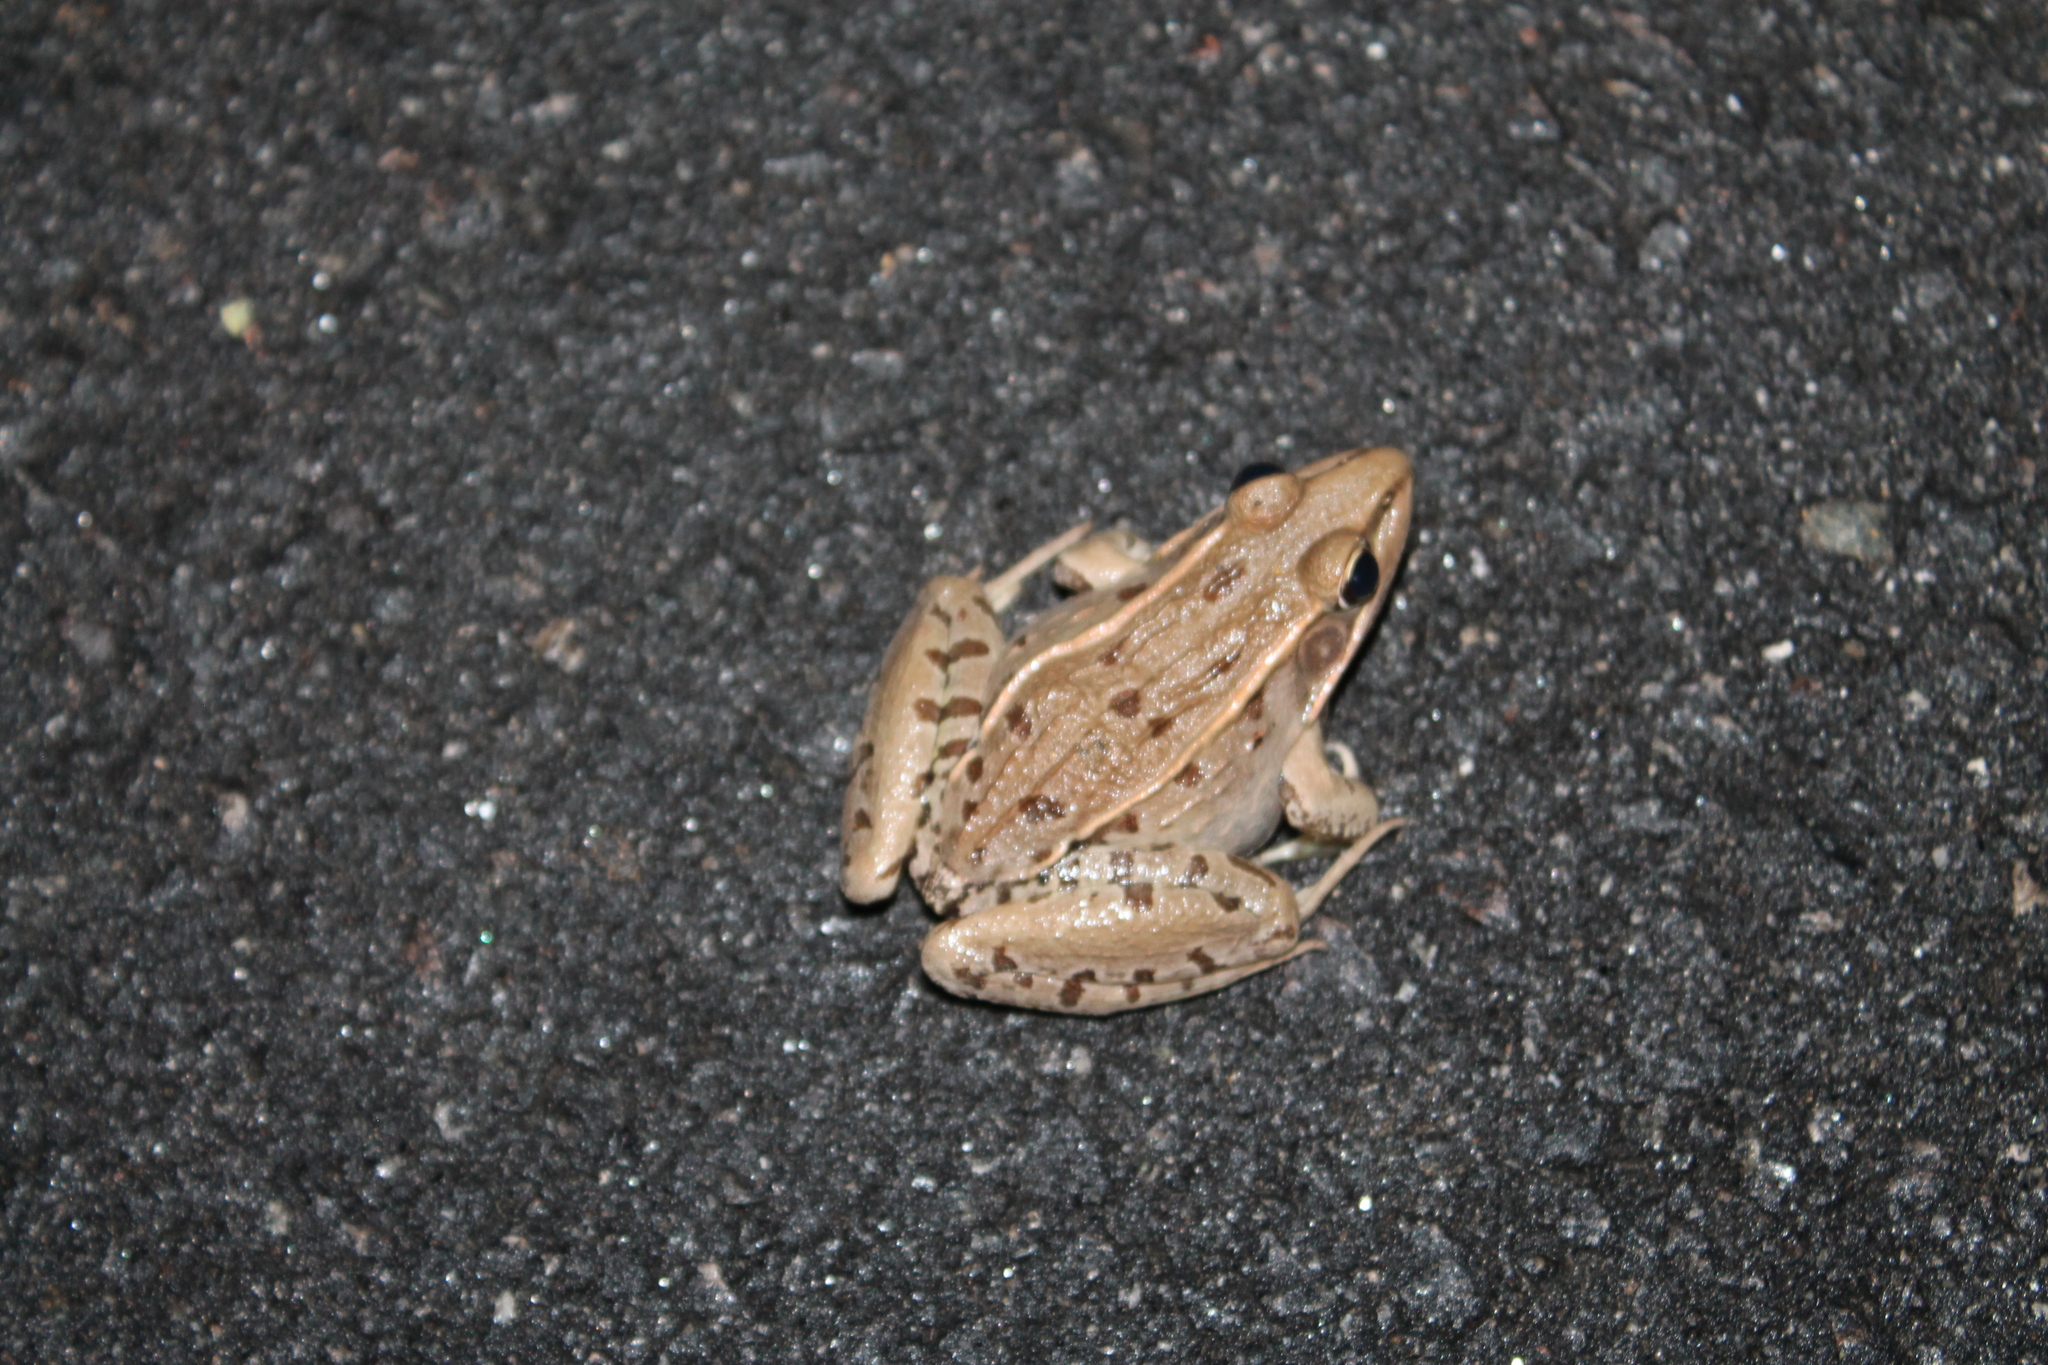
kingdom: Animalia
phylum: Chordata
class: Amphibia
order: Anura
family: Ranidae
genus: Lithobates
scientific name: Lithobates sphenocephalus
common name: Southern leopard frog
